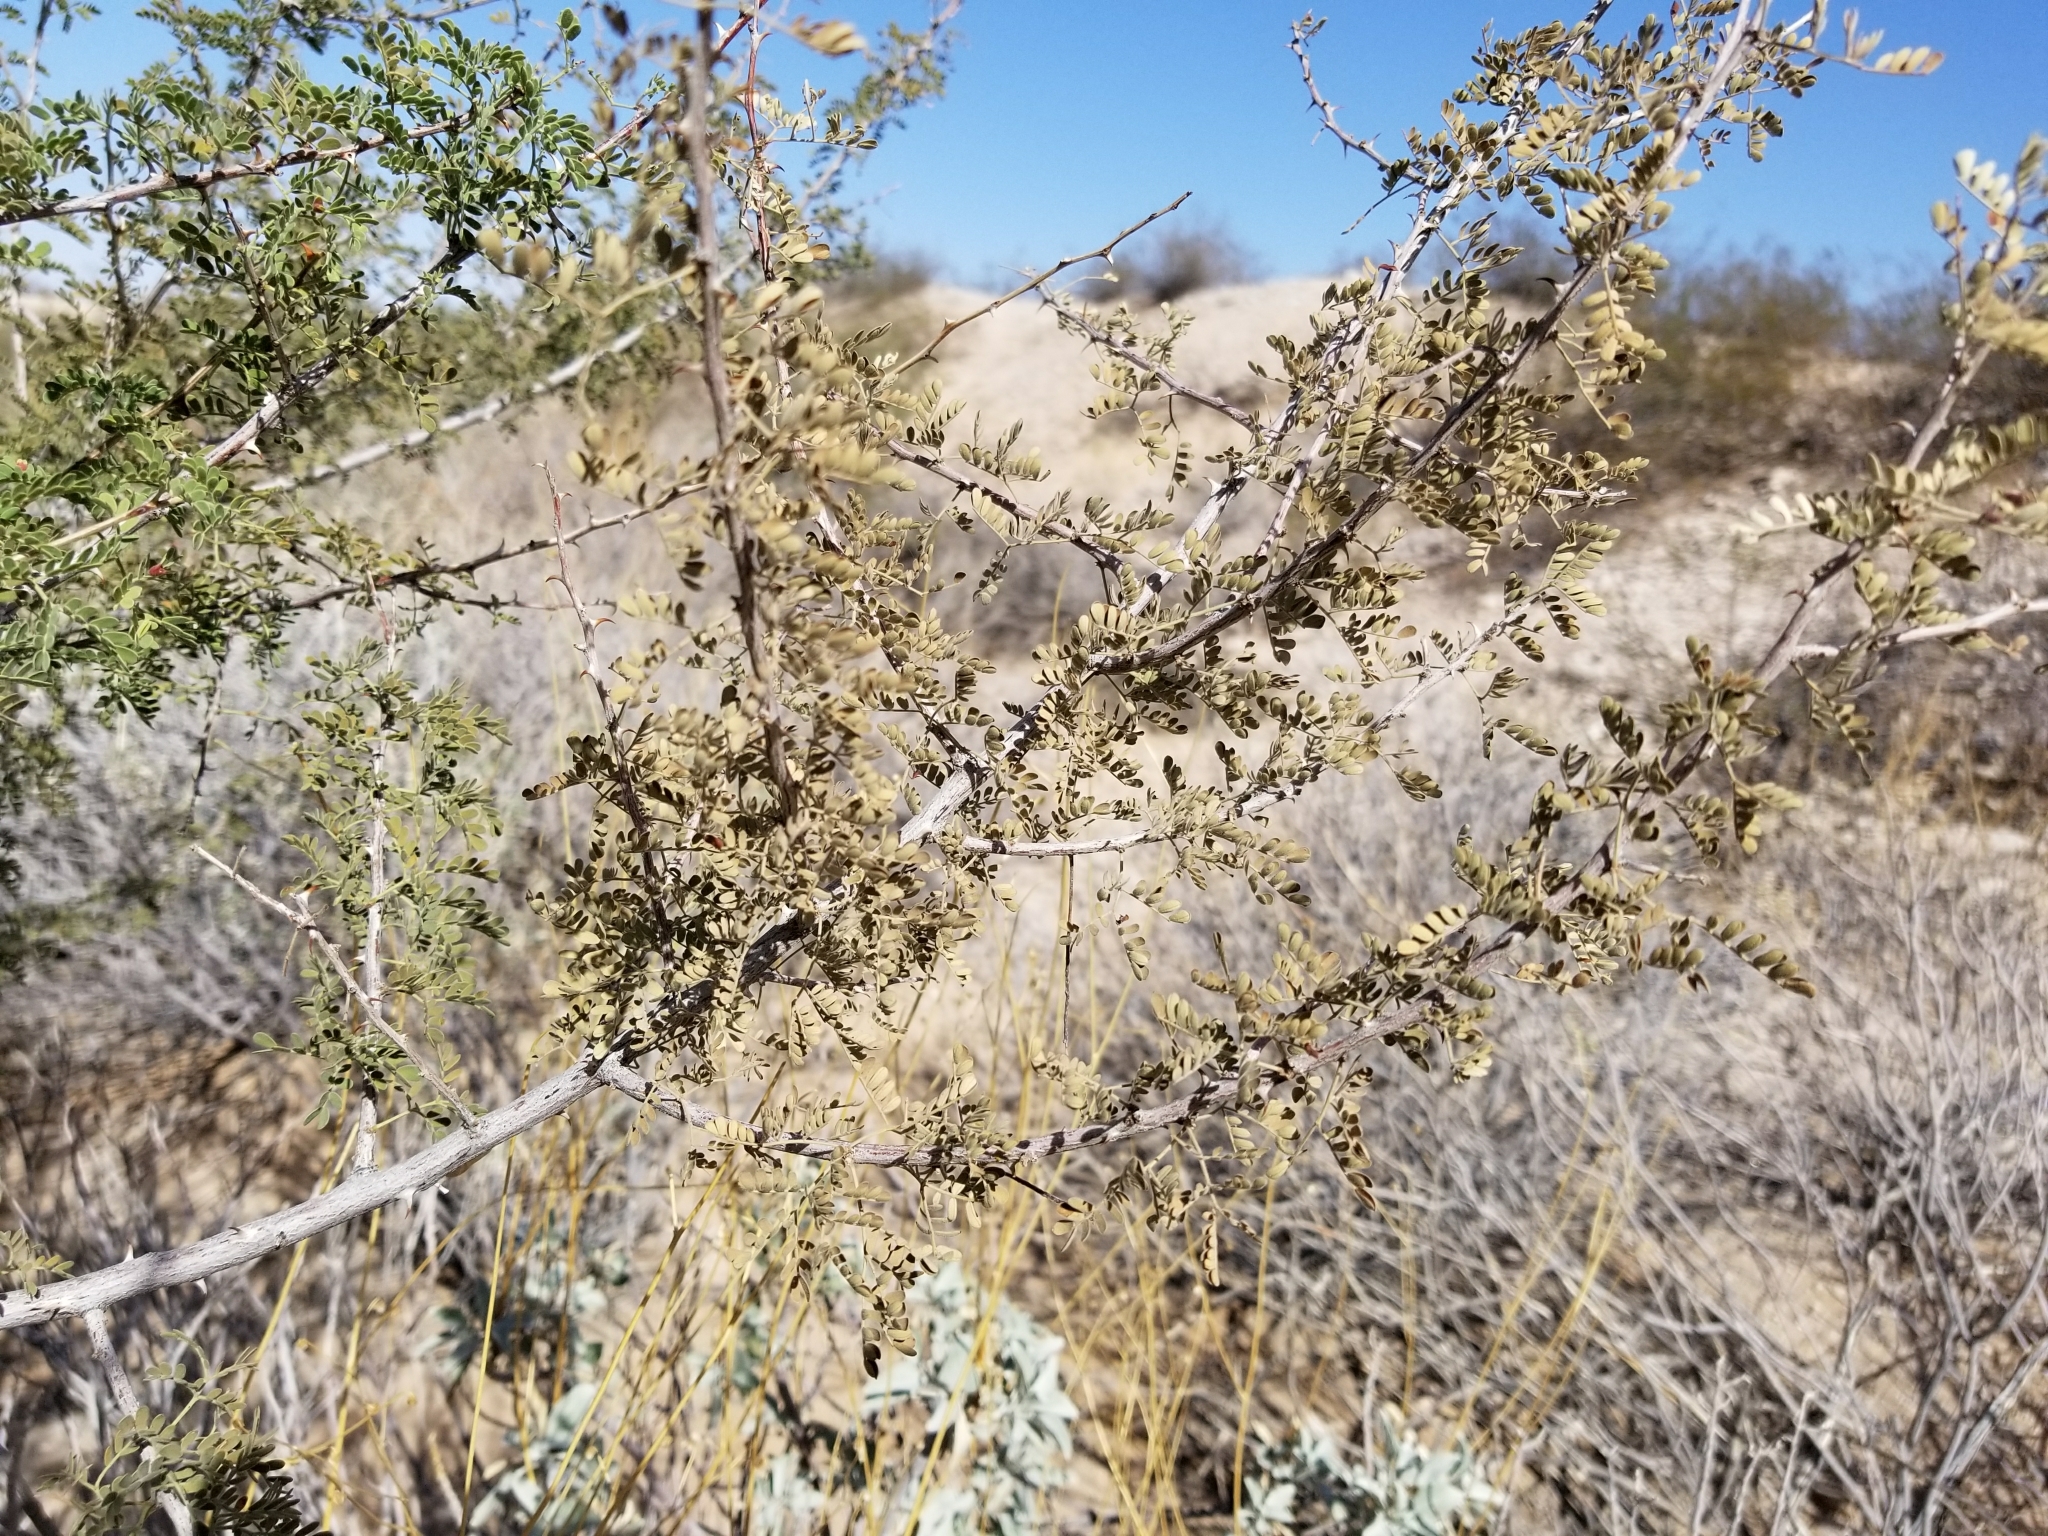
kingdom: Plantae
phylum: Tracheophyta
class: Magnoliopsida
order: Fabales
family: Fabaceae
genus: Senegalia
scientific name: Senegalia greggii
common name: Texas-mimosa
